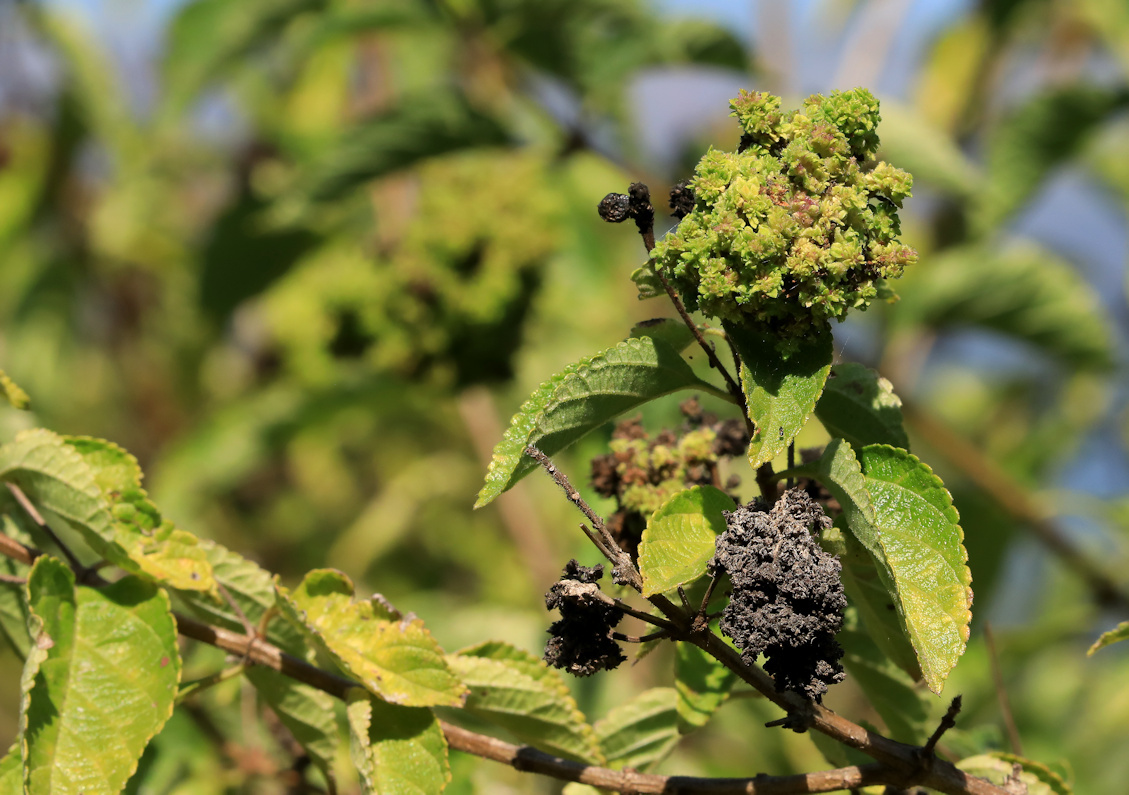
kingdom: Plantae
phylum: Tracheophyta
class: Magnoliopsida
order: Lamiales
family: Verbenaceae
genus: Lantana
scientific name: Lantana camara
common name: Lantana
